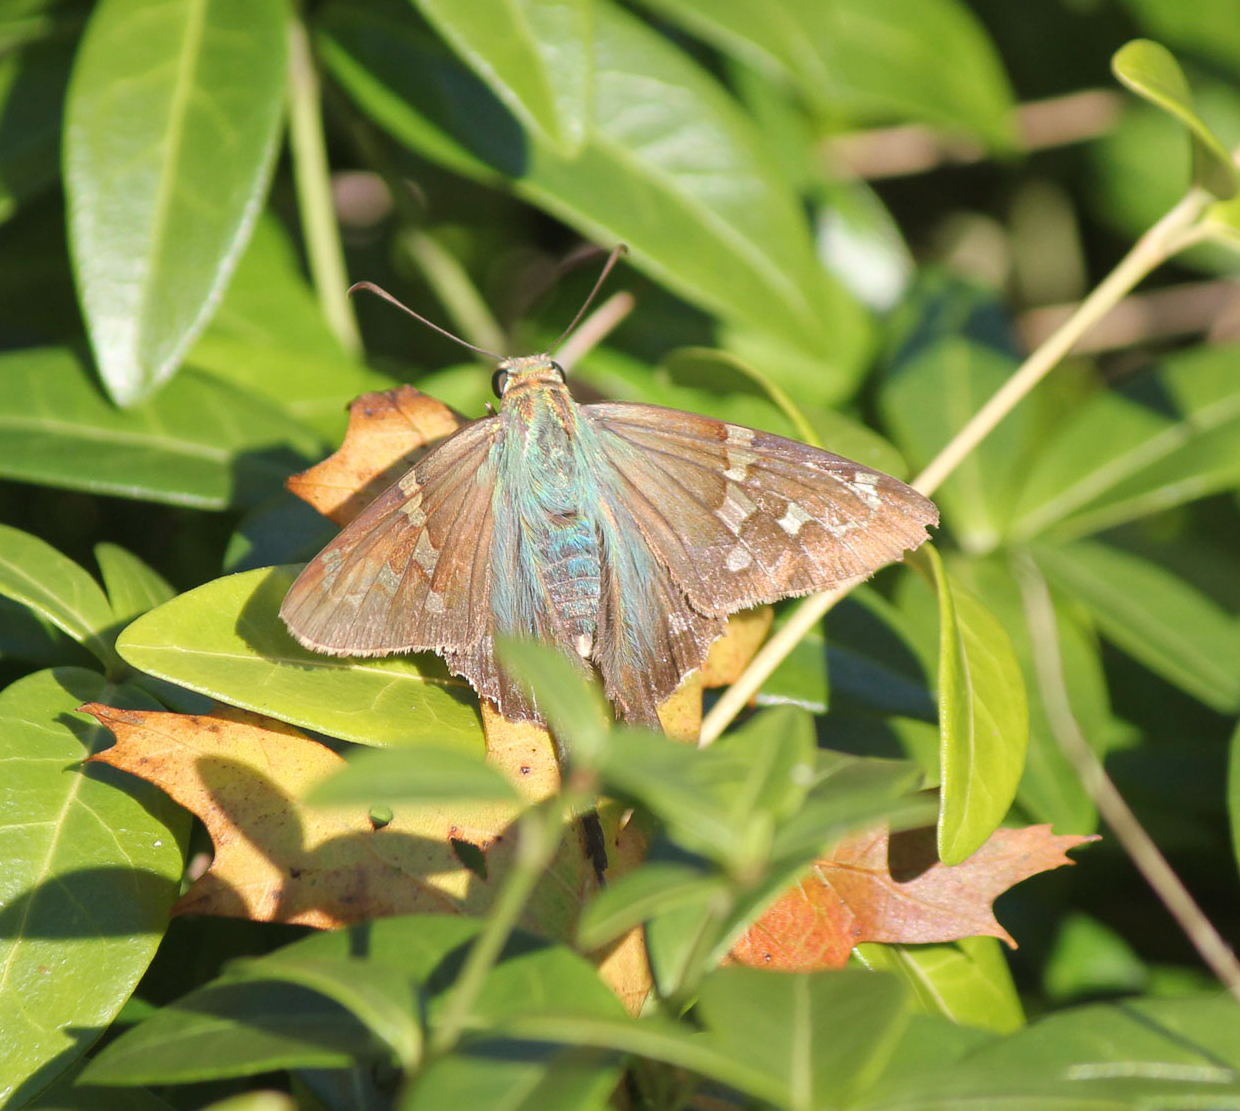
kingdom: Animalia
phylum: Arthropoda
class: Insecta
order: Lepidoptera
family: Hesperiidae
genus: Urbanus
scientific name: Urbanus proteus
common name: Long-tailed skipper
